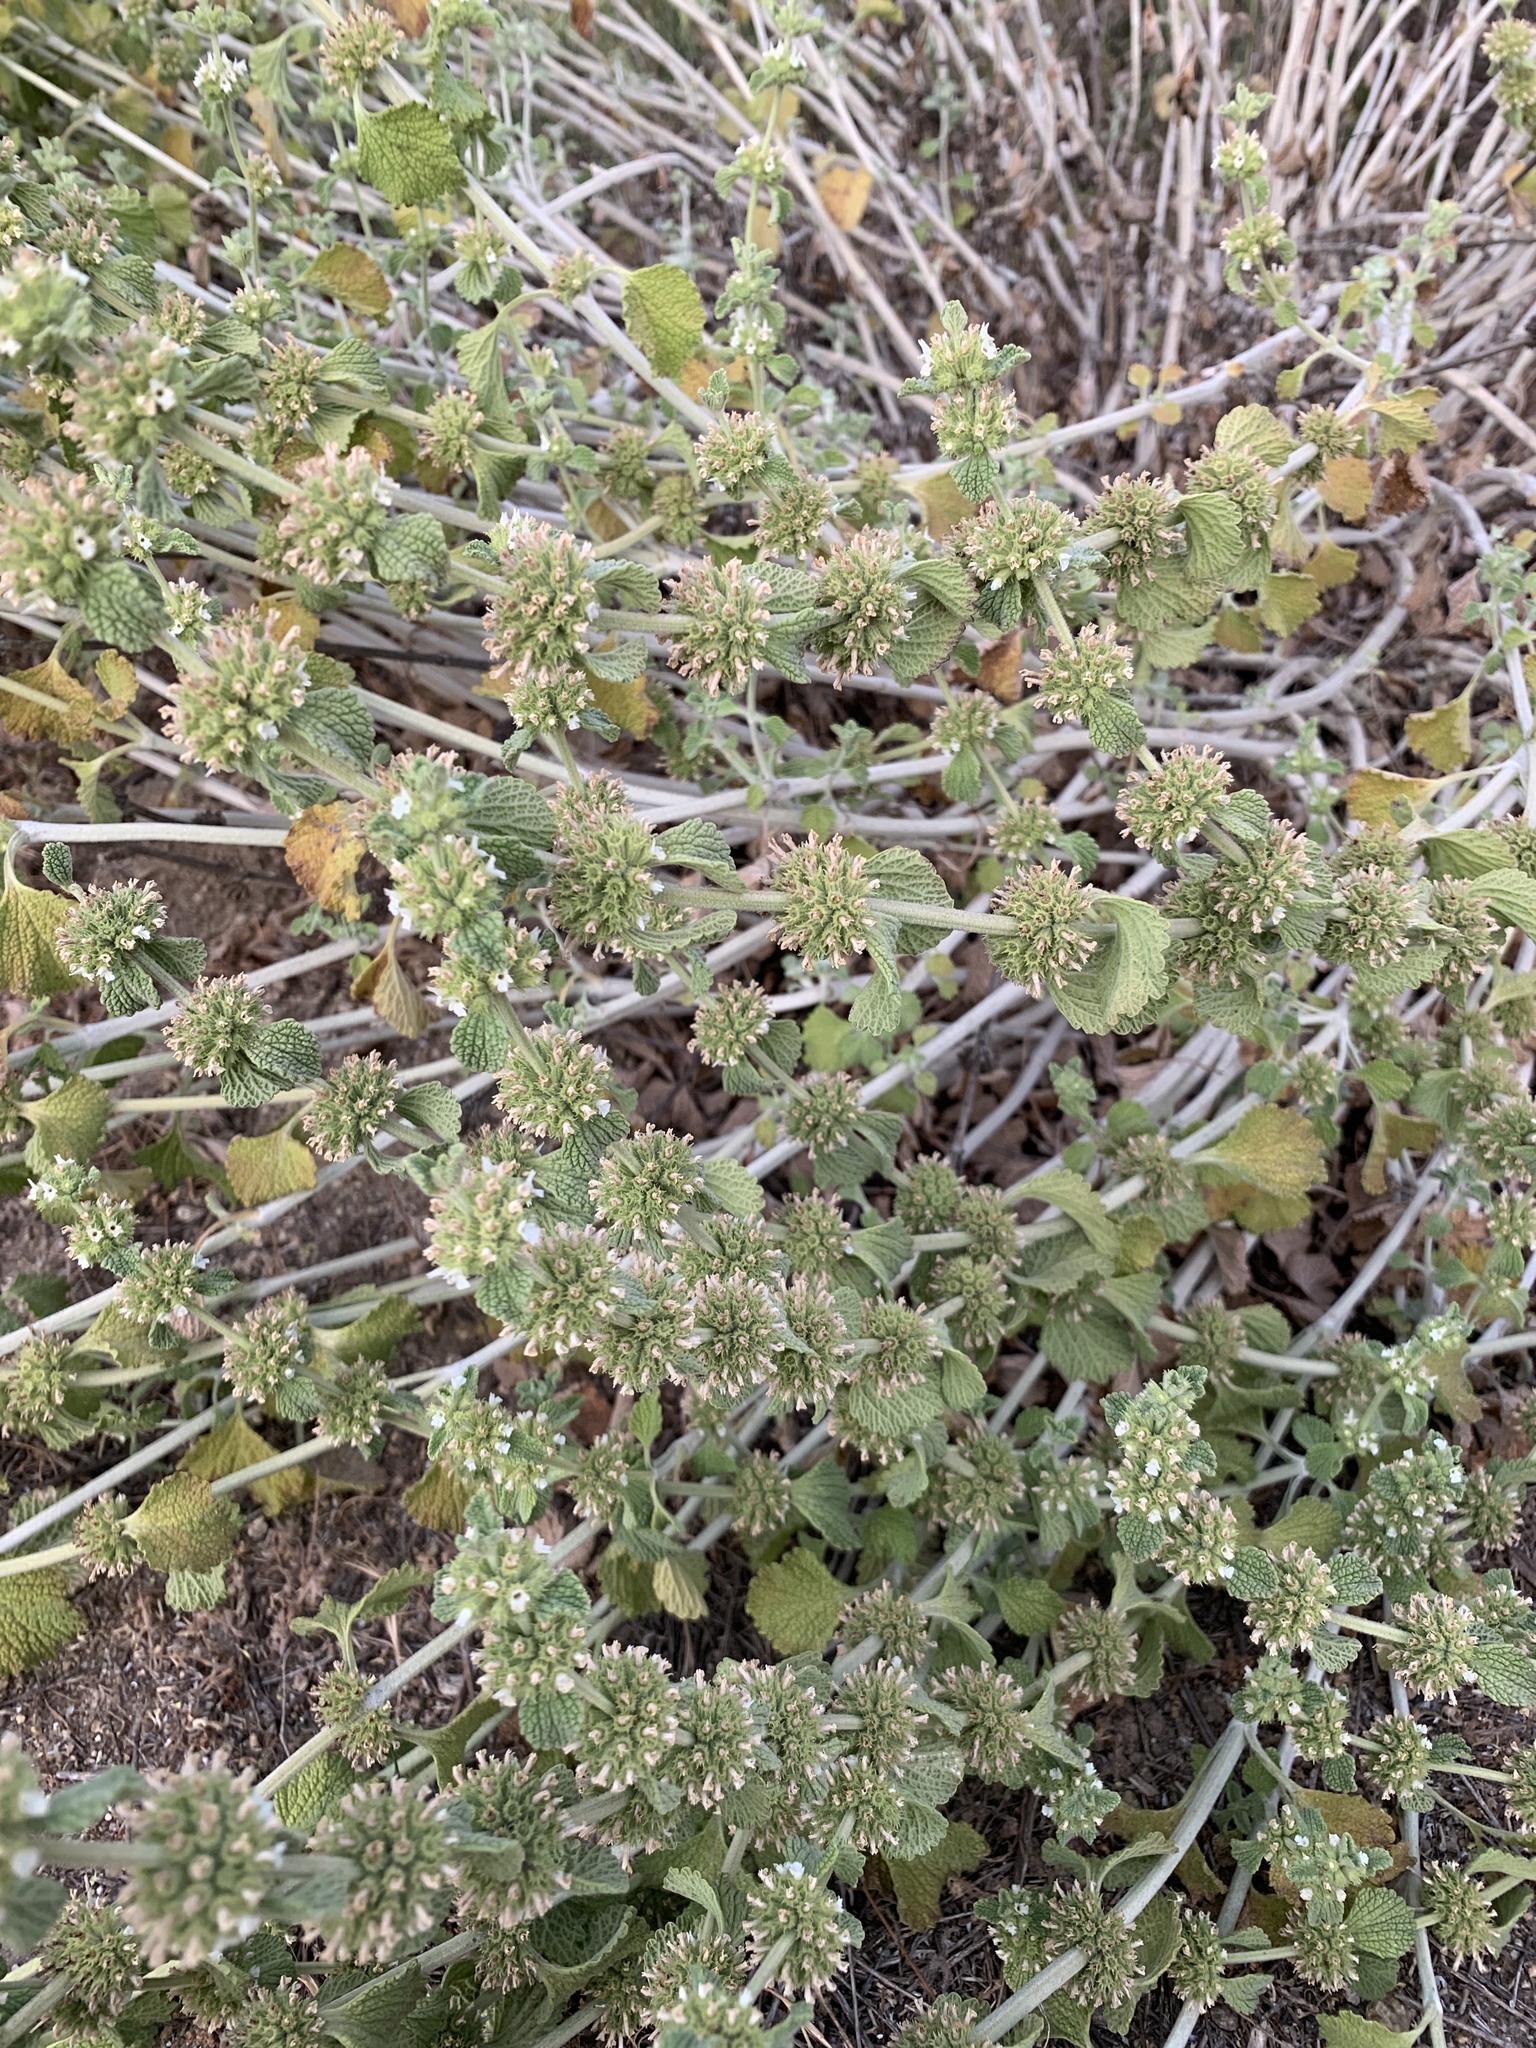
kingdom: Plantae
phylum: Tracheophyta
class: Magnoliopsida
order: Lamiales
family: Lamiaceae
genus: Marrubium
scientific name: Marrubium vulgare
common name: Horehound
